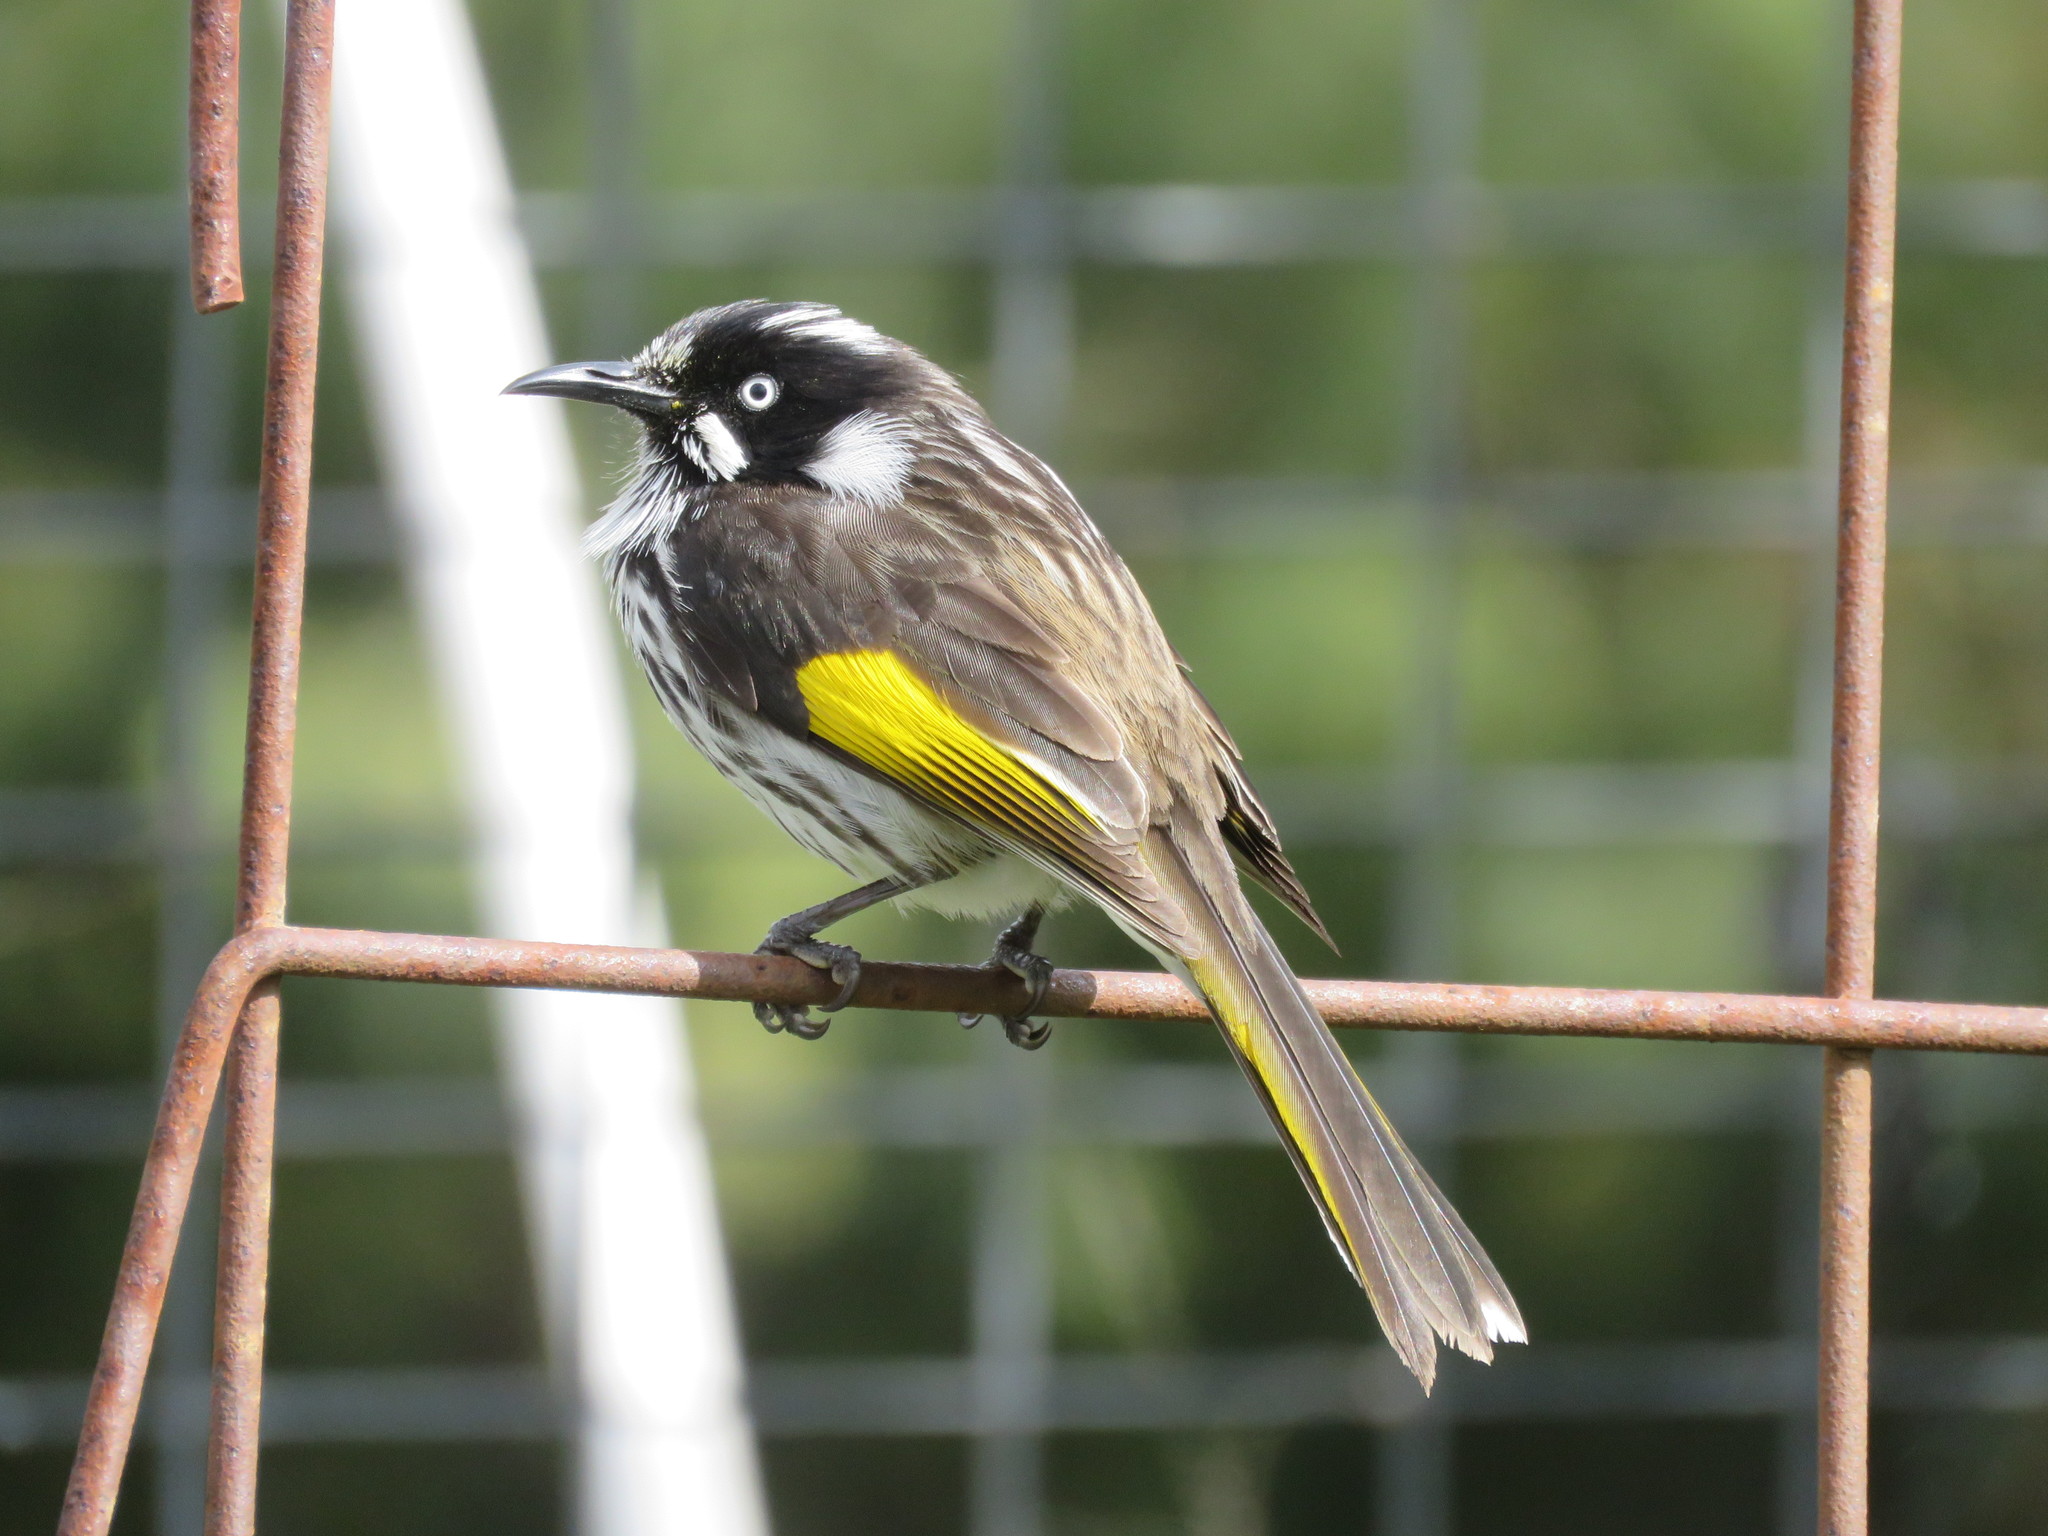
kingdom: Animalia
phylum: Chordata
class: Aves
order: Passeriformes
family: Meliphagidae
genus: Phylidonyris
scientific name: Phylidonyris novaehollandiae
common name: New holland honeyeater
